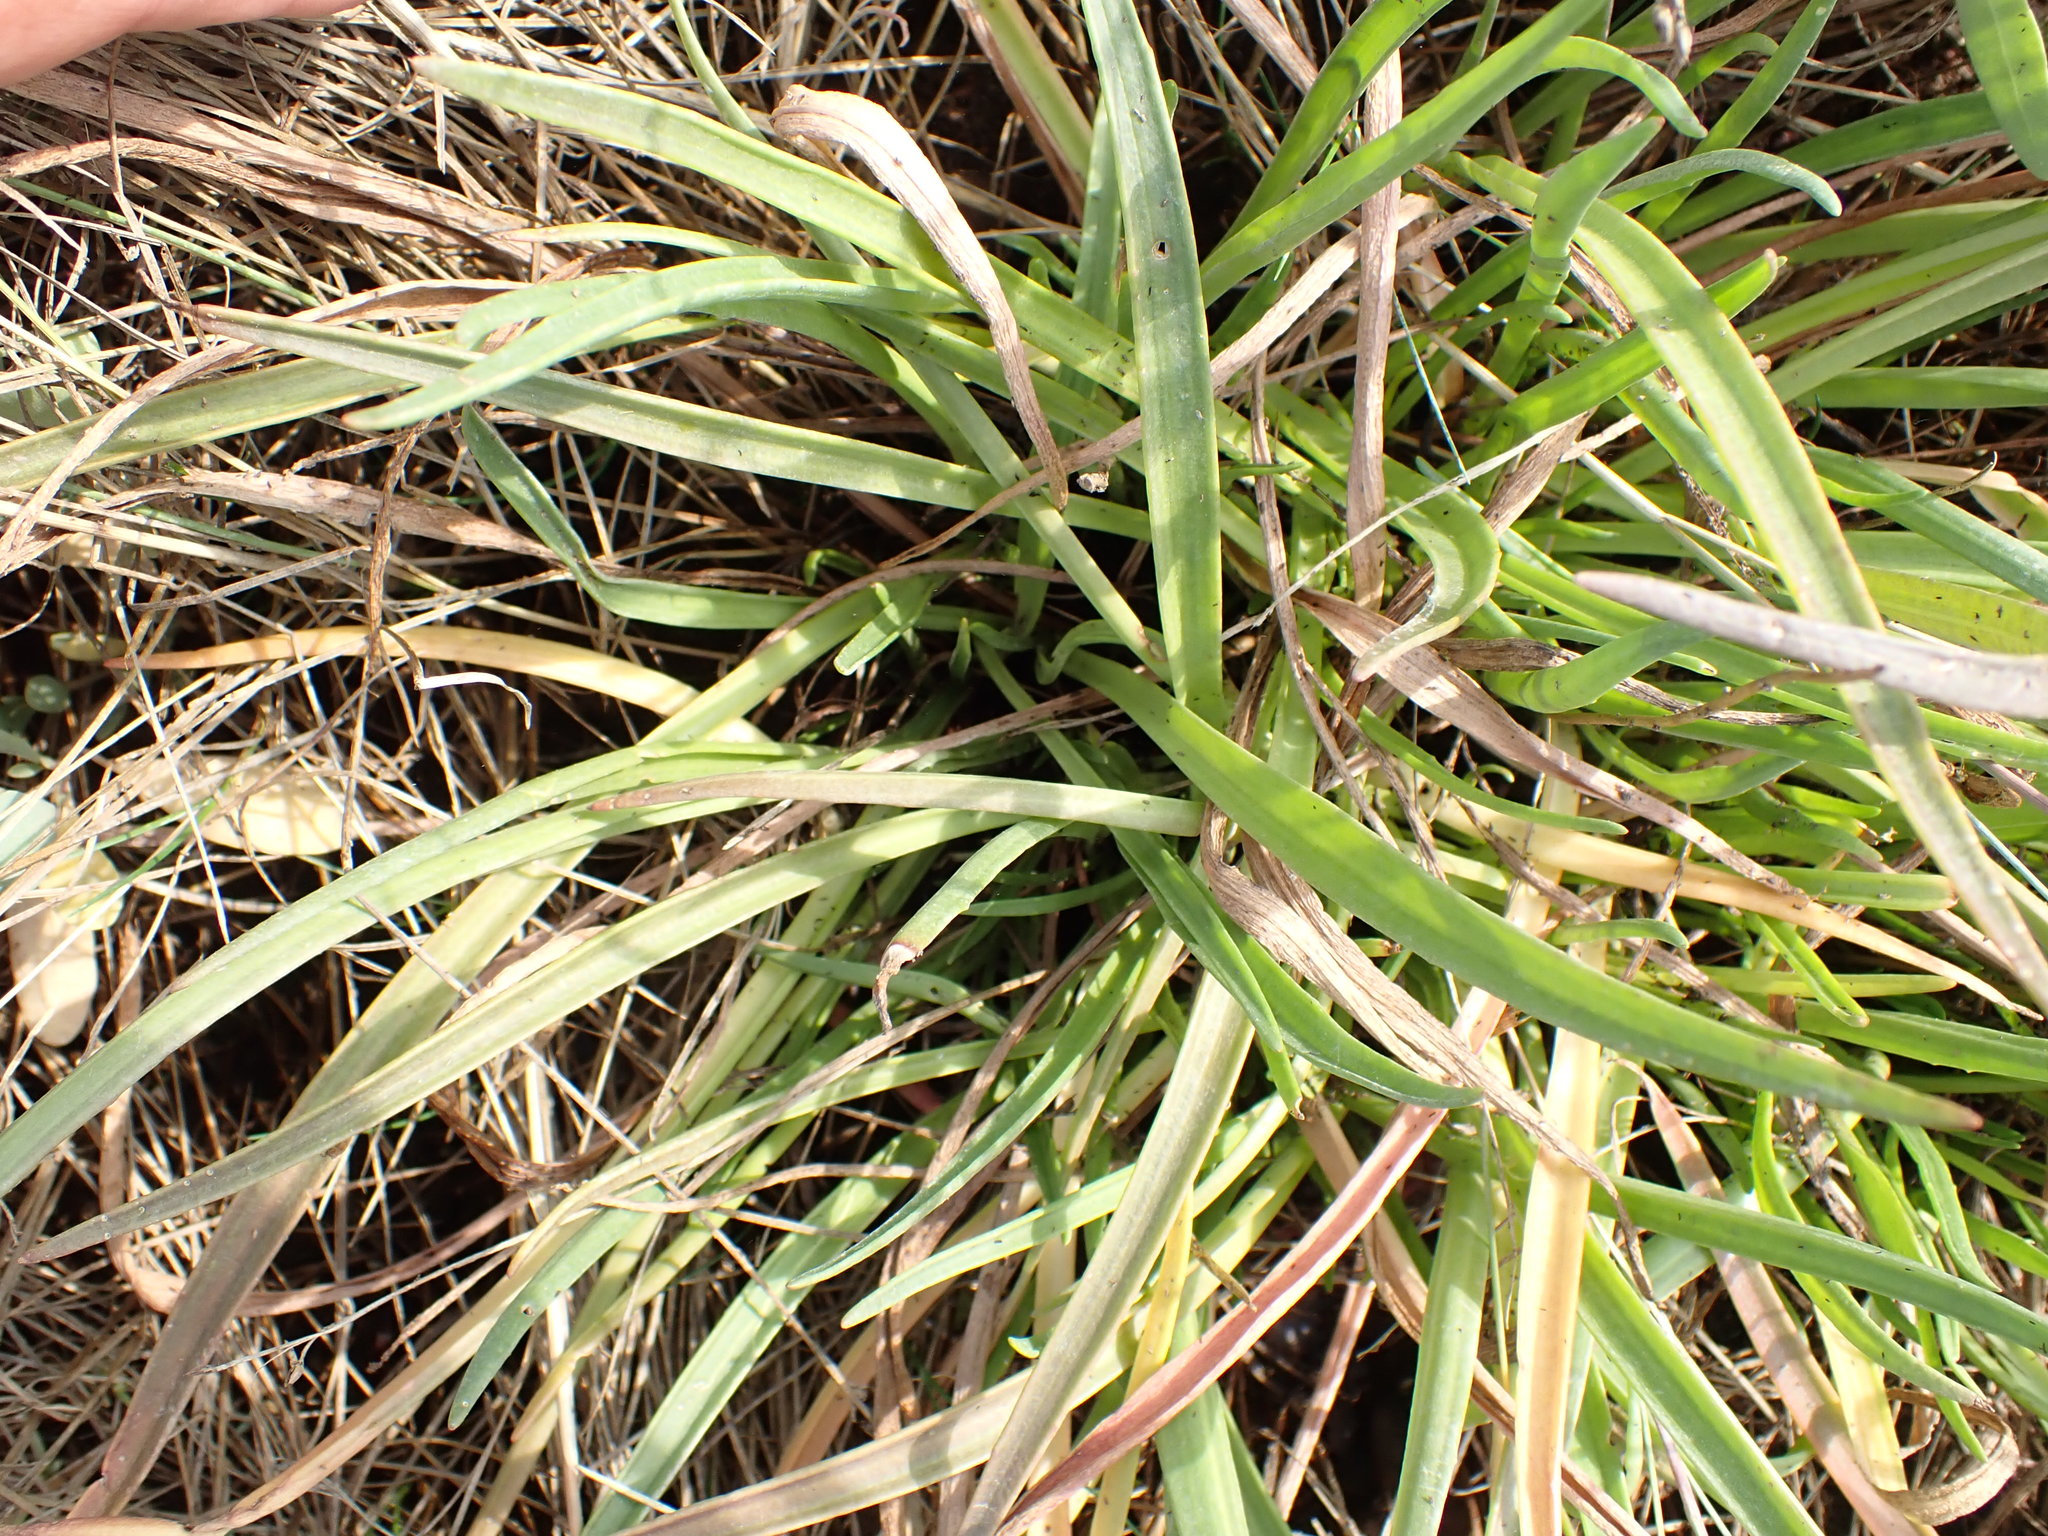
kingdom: Plantae
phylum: Tracheophyta
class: Magnoliopsida
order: Lamiales
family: Plantaginaceae
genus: Plantago
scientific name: Plantago maritima
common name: Sea plantain
